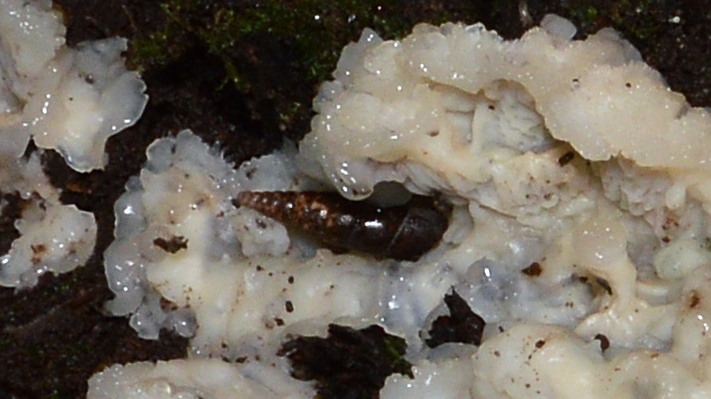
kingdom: Animalia
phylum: Mollusca
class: Gastropoda
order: Stylommatophora
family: Clausiliidae
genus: Cochlodina
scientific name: Cochlodina laminata
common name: Plaited door snail
